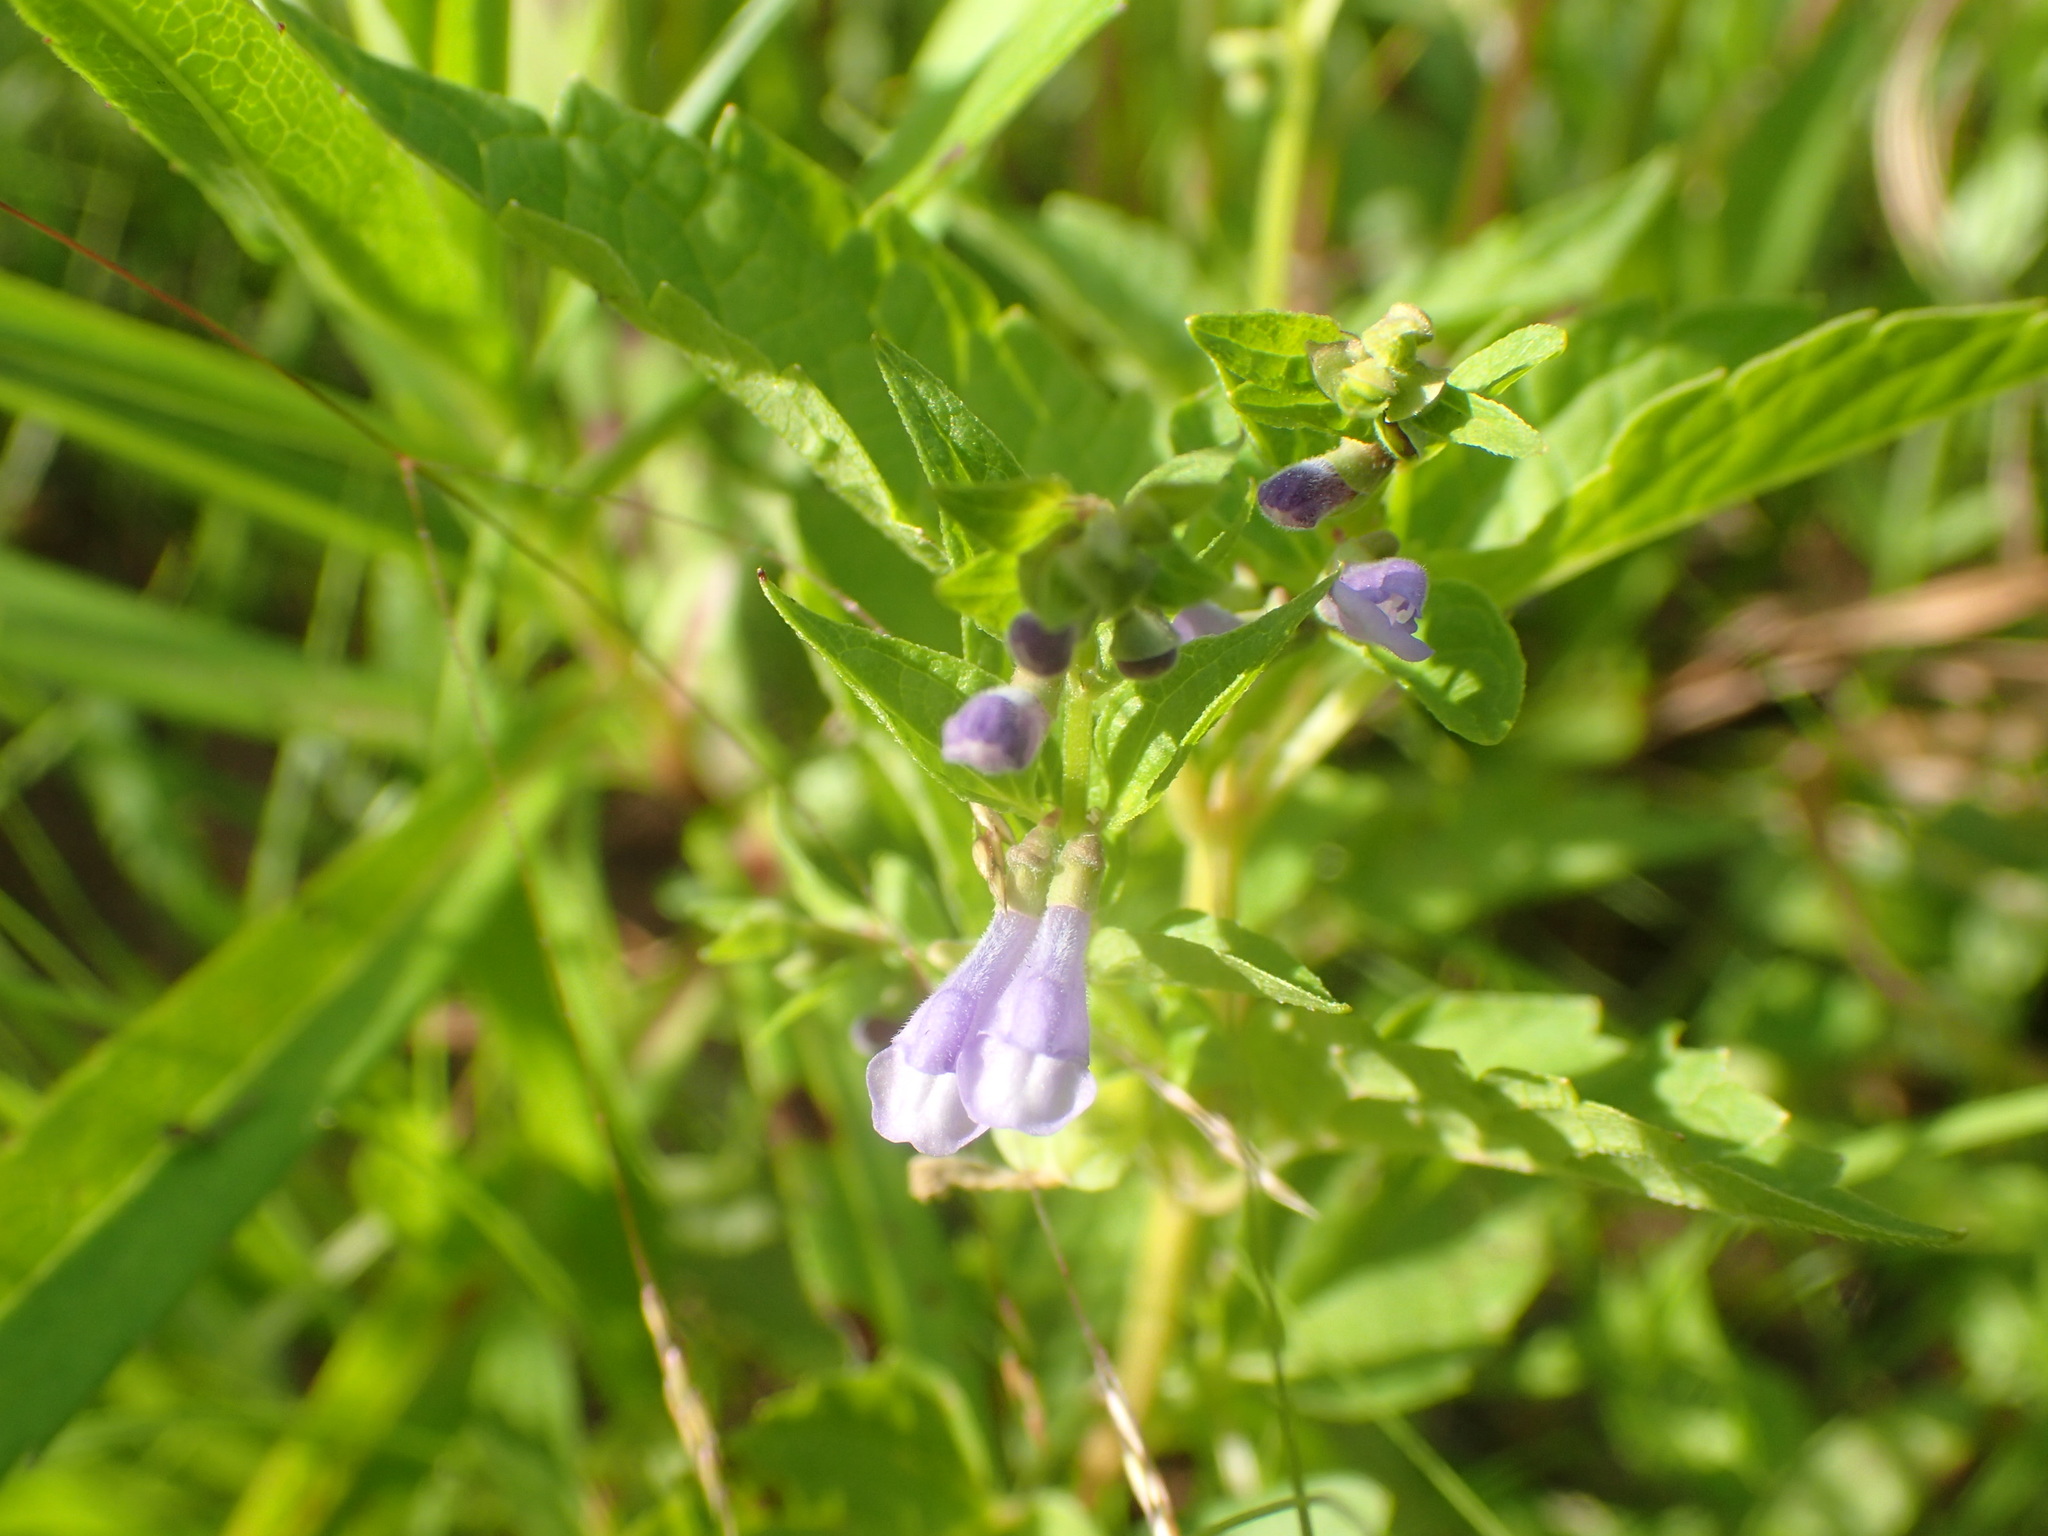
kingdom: Plantae
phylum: Tracheophyta
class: Magnoliopsida
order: Lamiales
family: Lamiaceae
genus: Scutellaria
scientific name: Scutellaria lateriflora
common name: Blue skullcap
